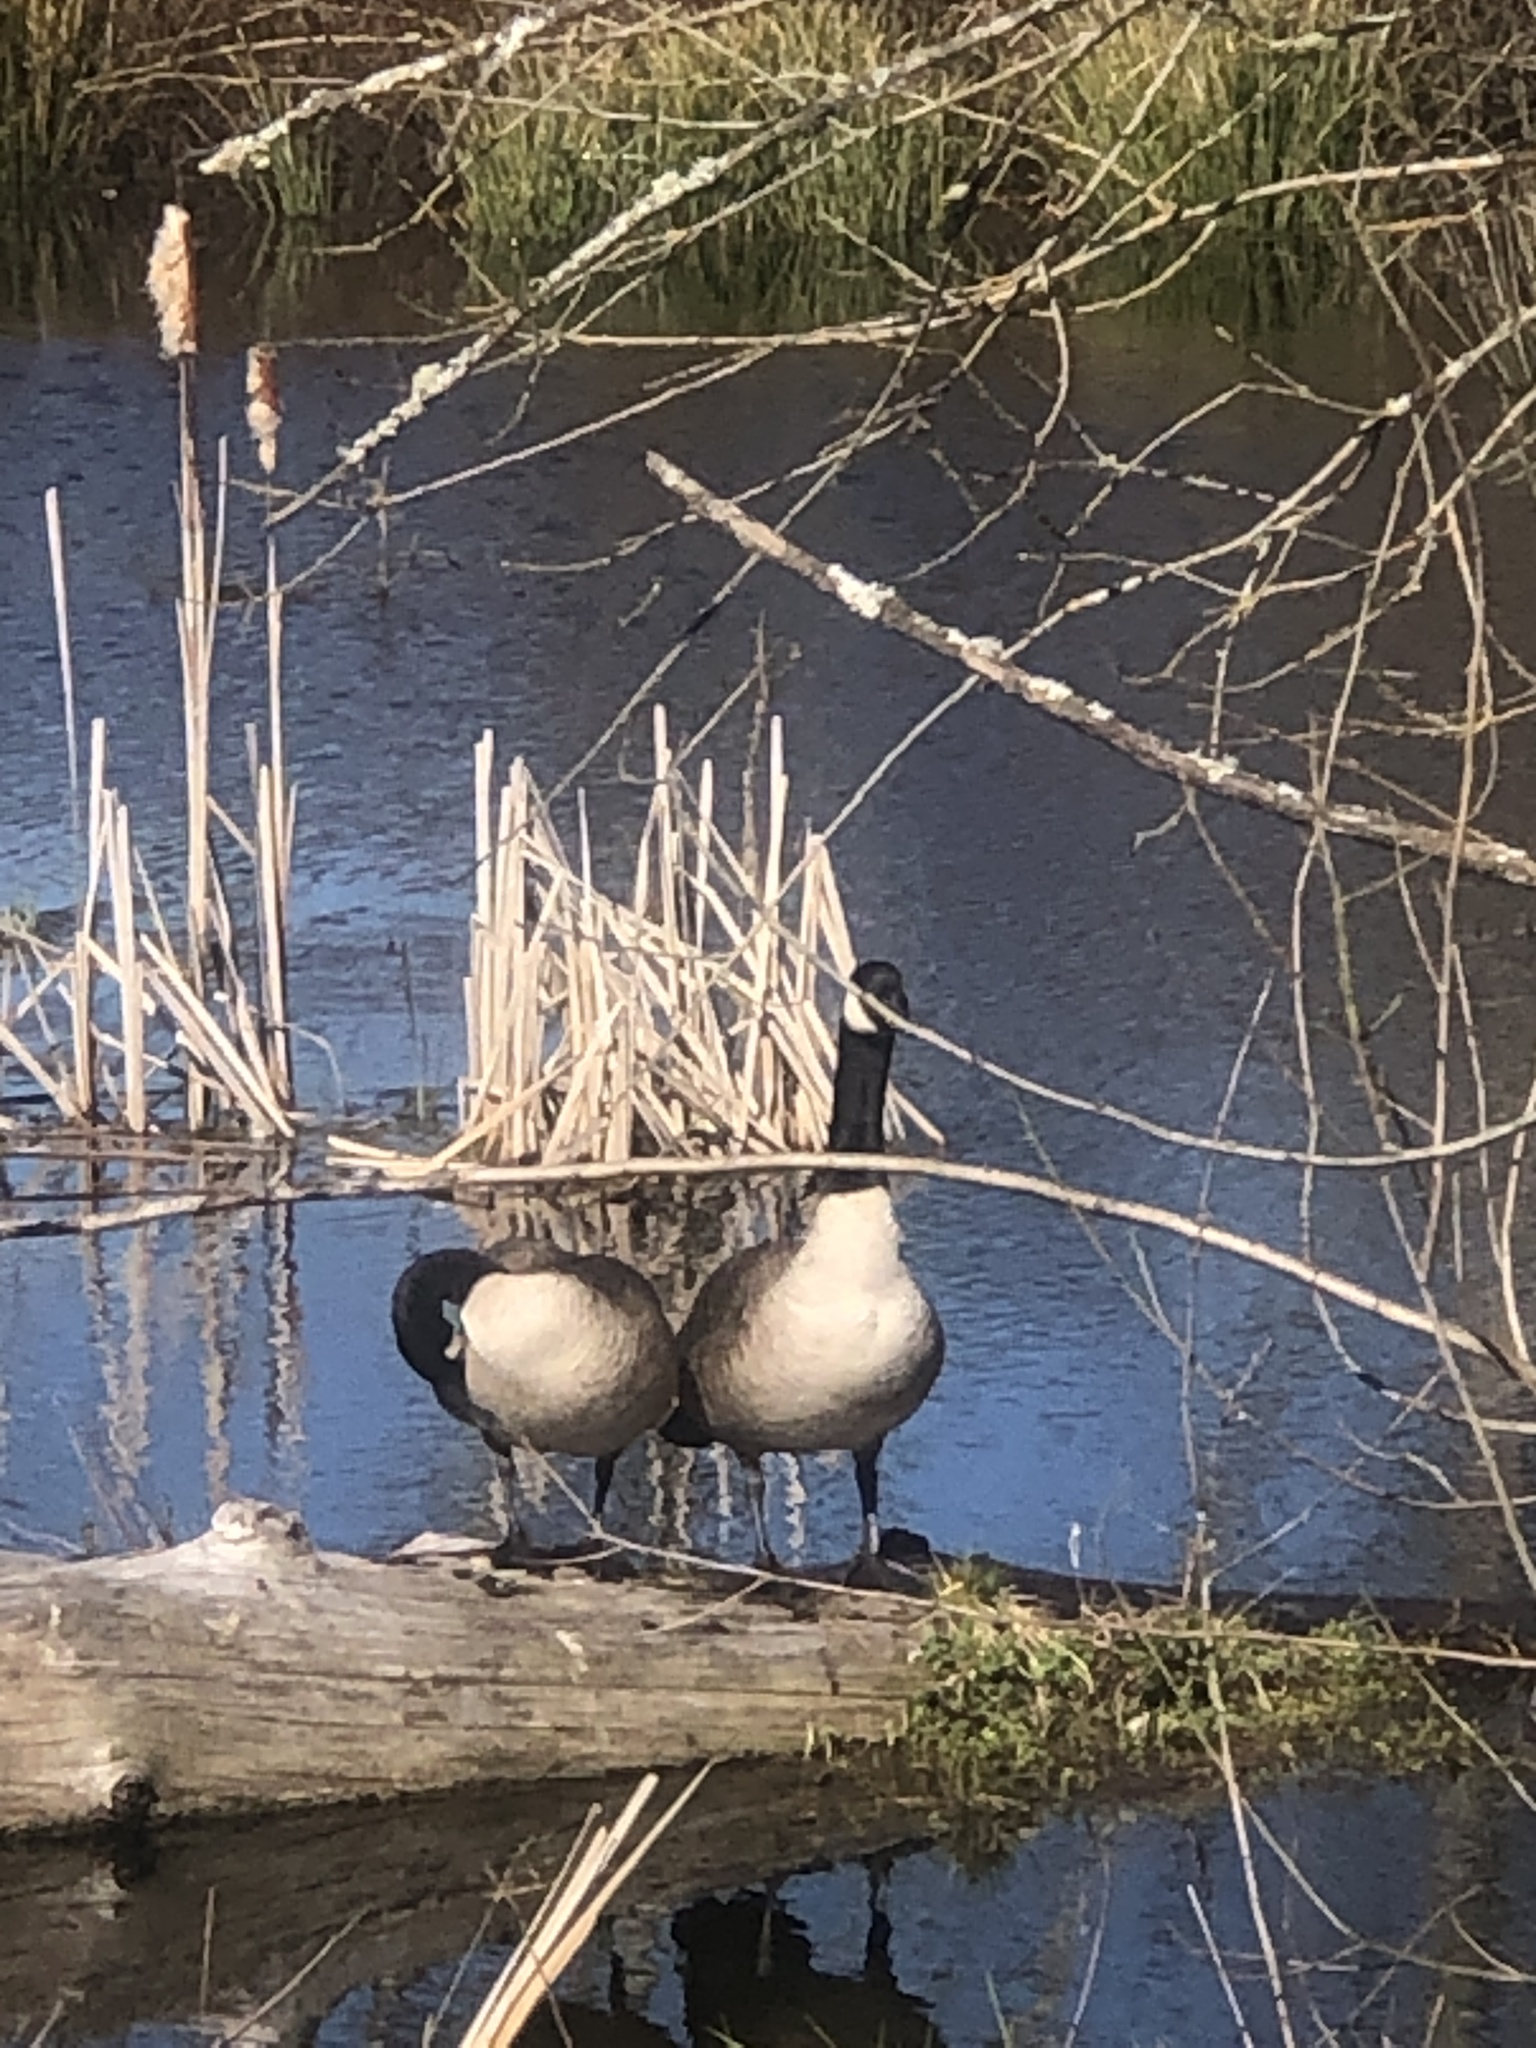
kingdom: Animalia
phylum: Chordata
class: Aves
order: Anseriformes
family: Anatidae
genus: Branta
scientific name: Branta canadensis
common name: Canada goose
